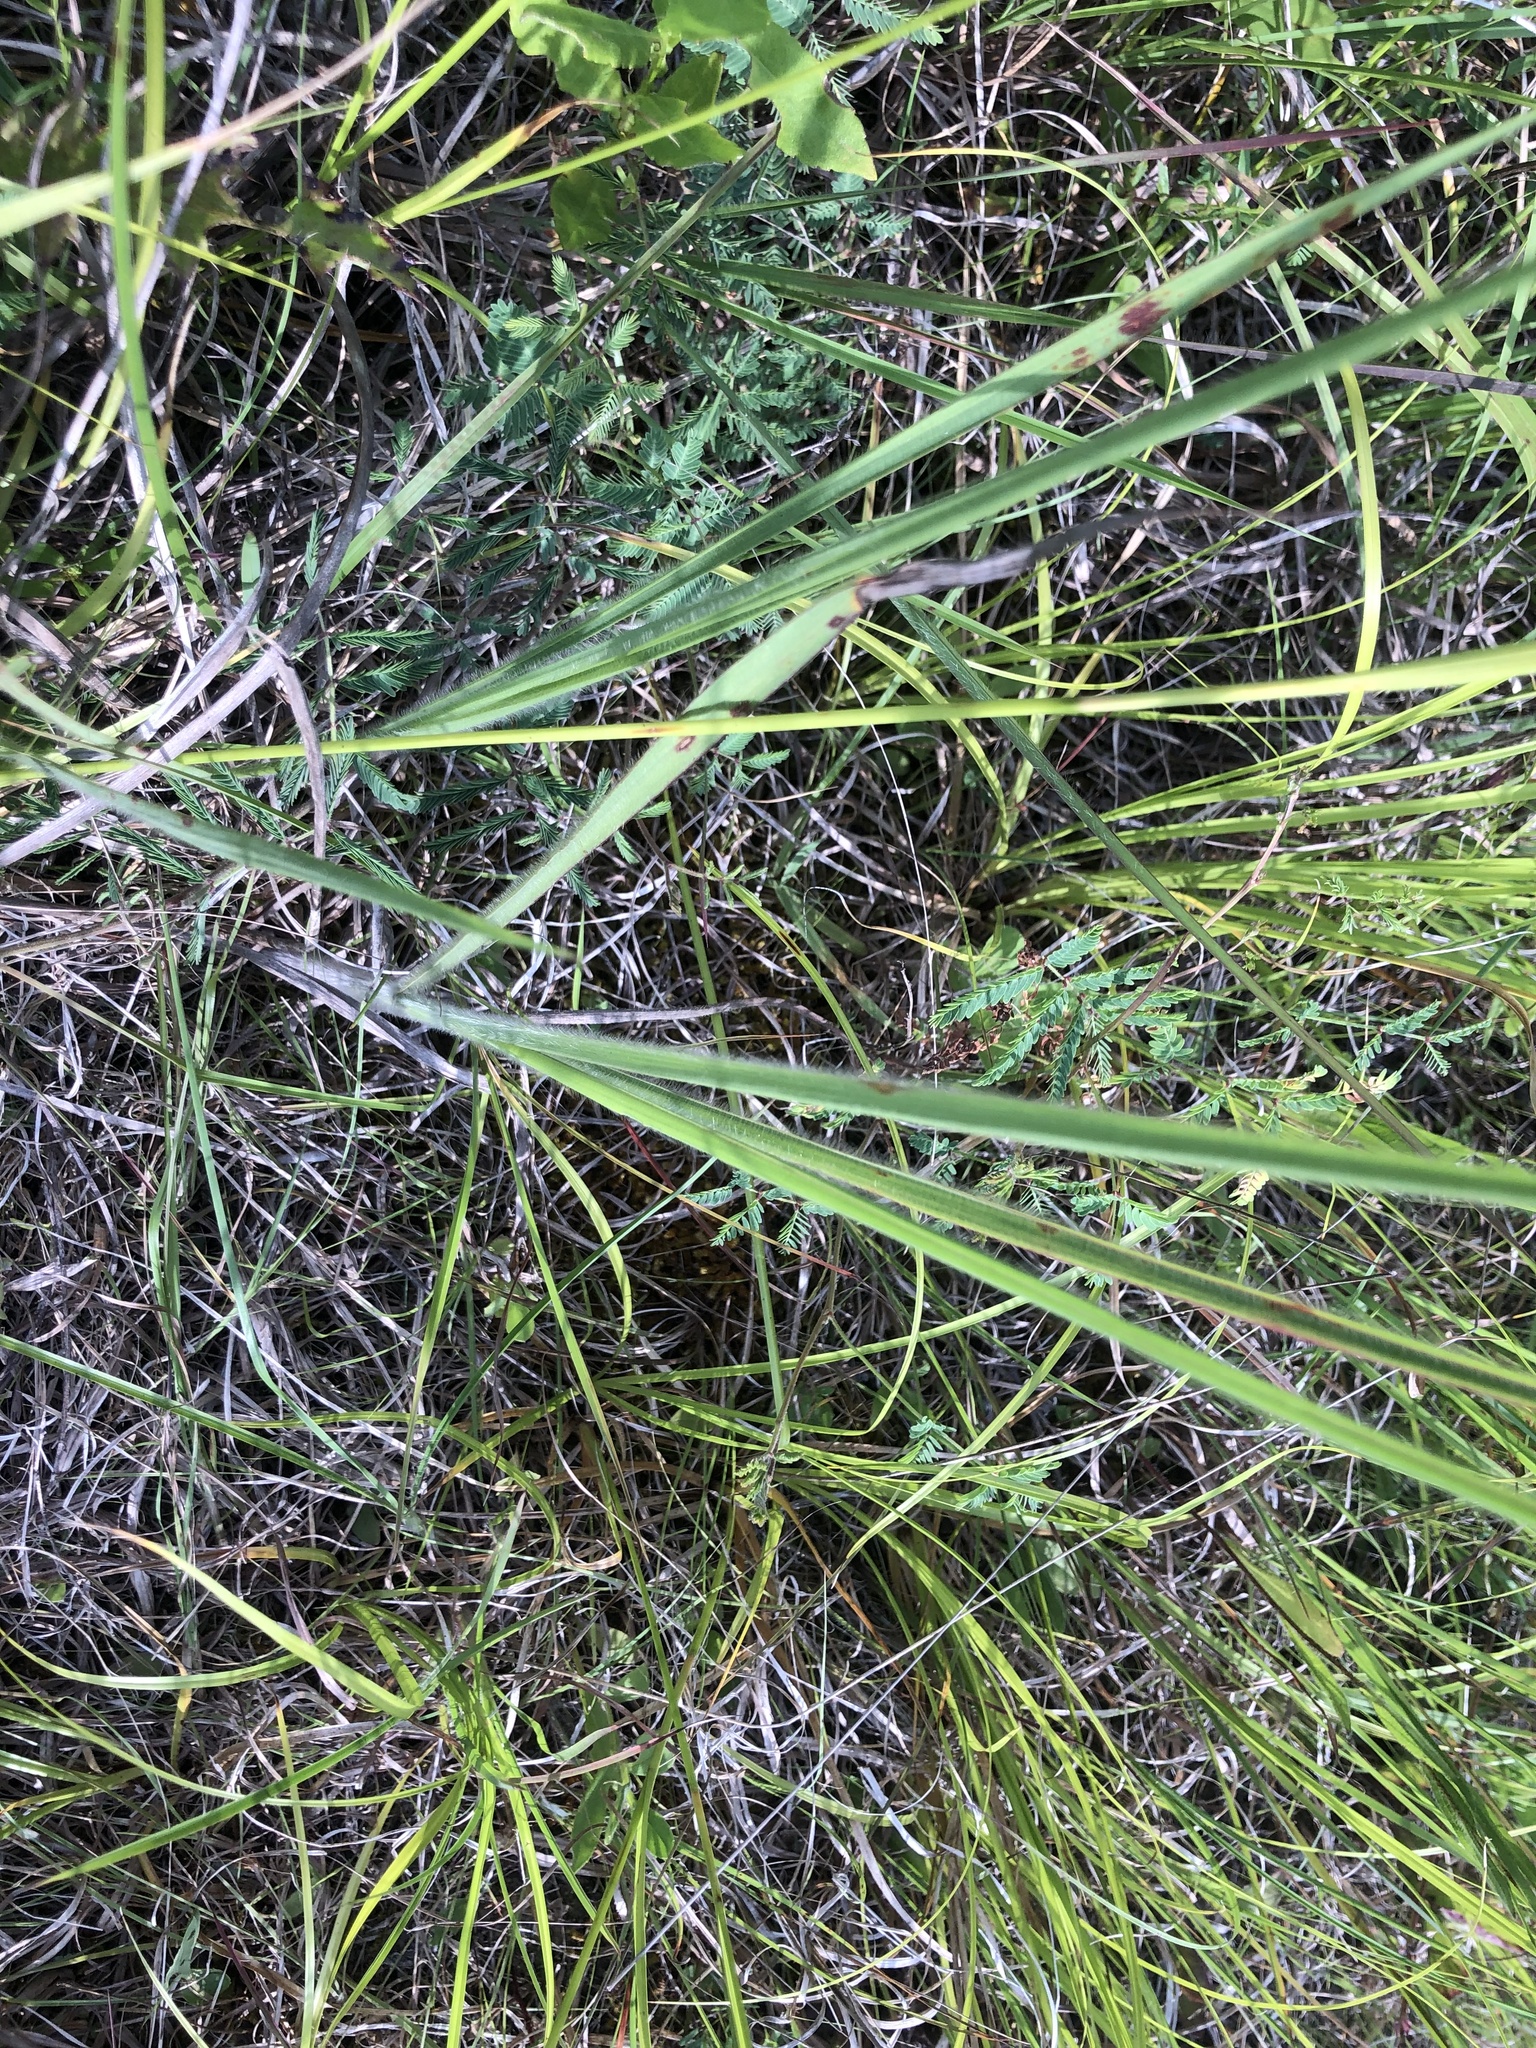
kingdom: Plantae
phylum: Tracheophyta
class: Liliopsida
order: Poales
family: Poaceae
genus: Paspalum
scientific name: Paspalum floridanum
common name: Florida paspalum
